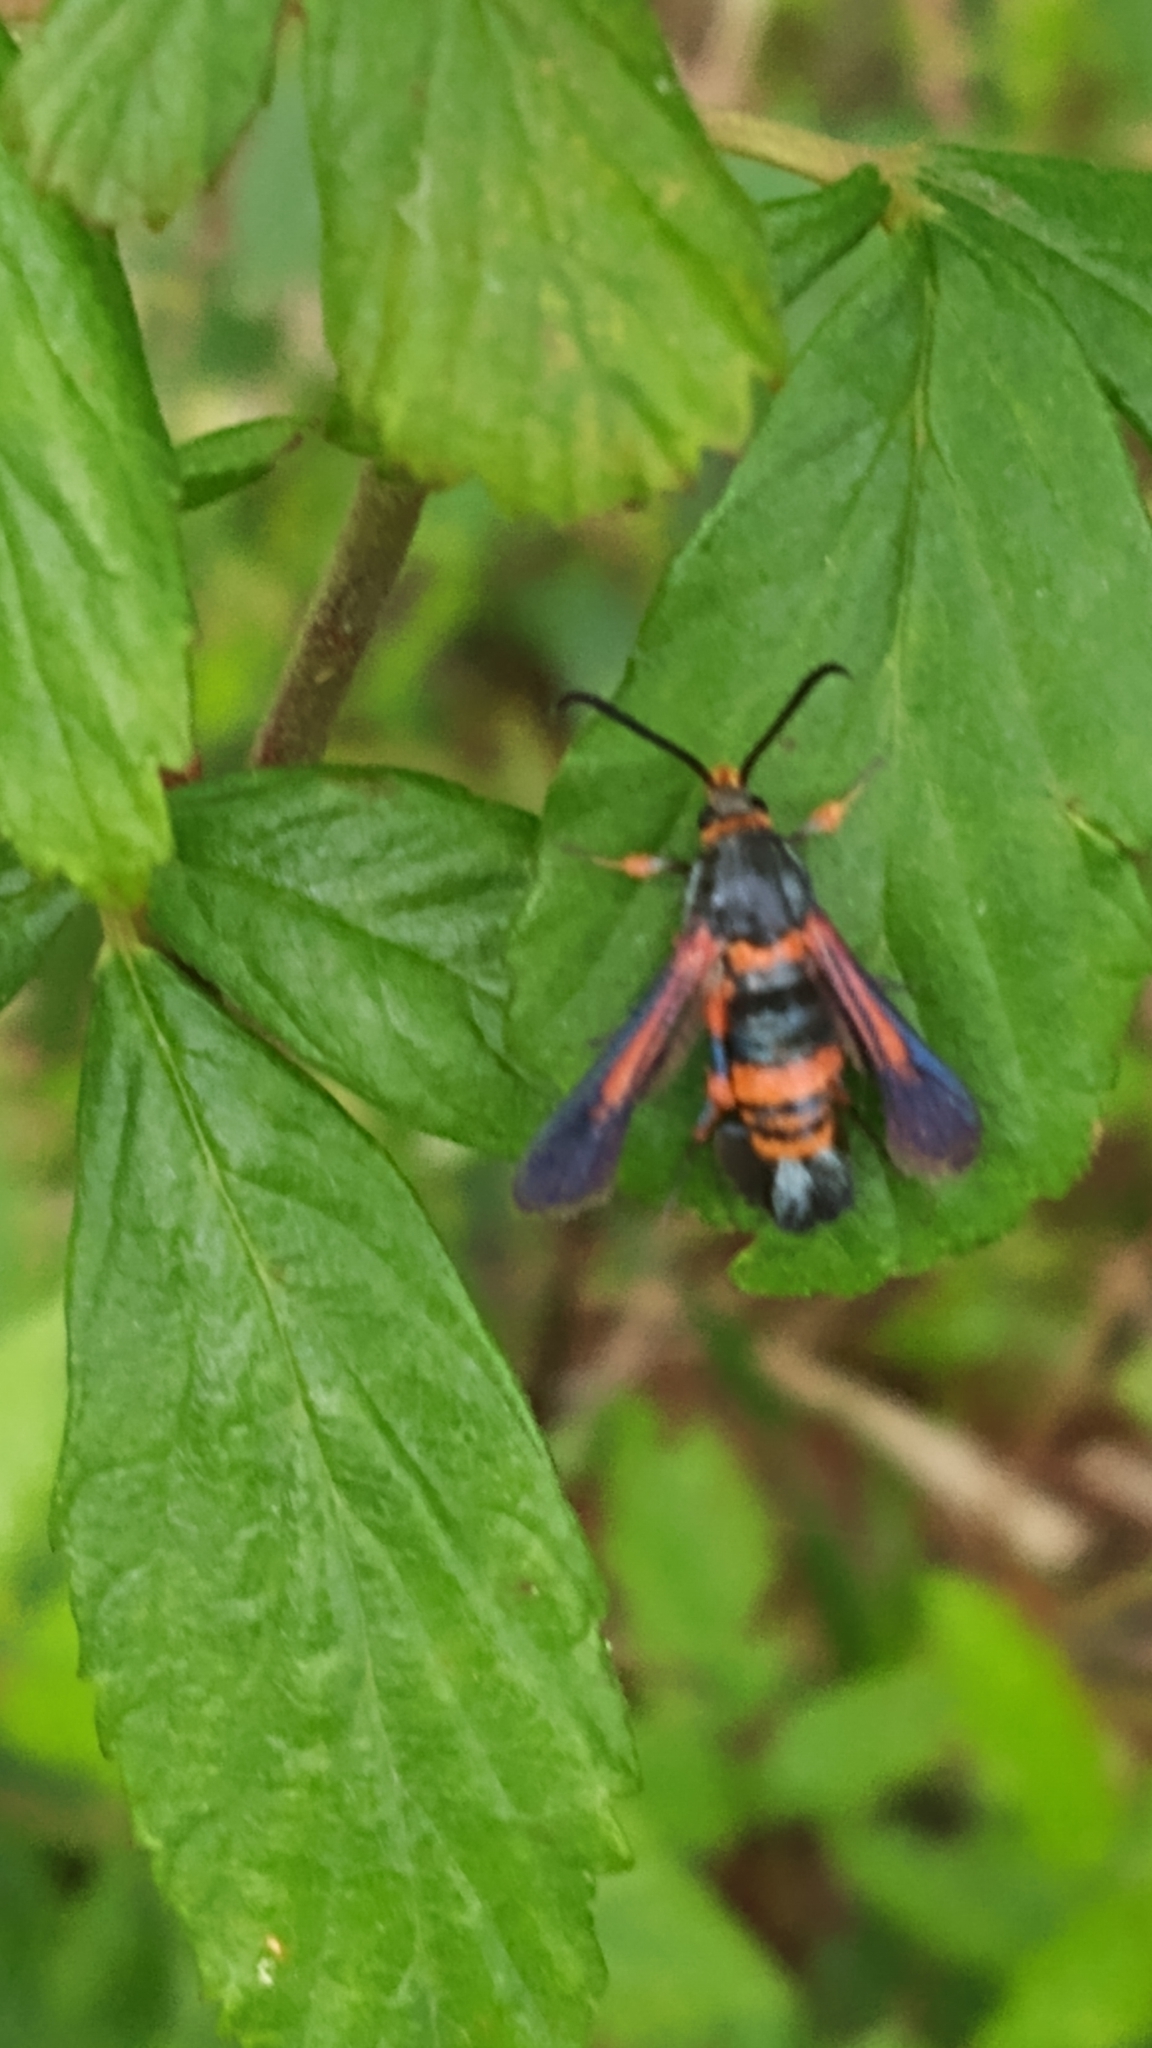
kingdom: Animalia
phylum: Arthropoda
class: Insecta
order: Lepidoptera
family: Sesiidae
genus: Synanthedon
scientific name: Synanthedon sapygaeformis
